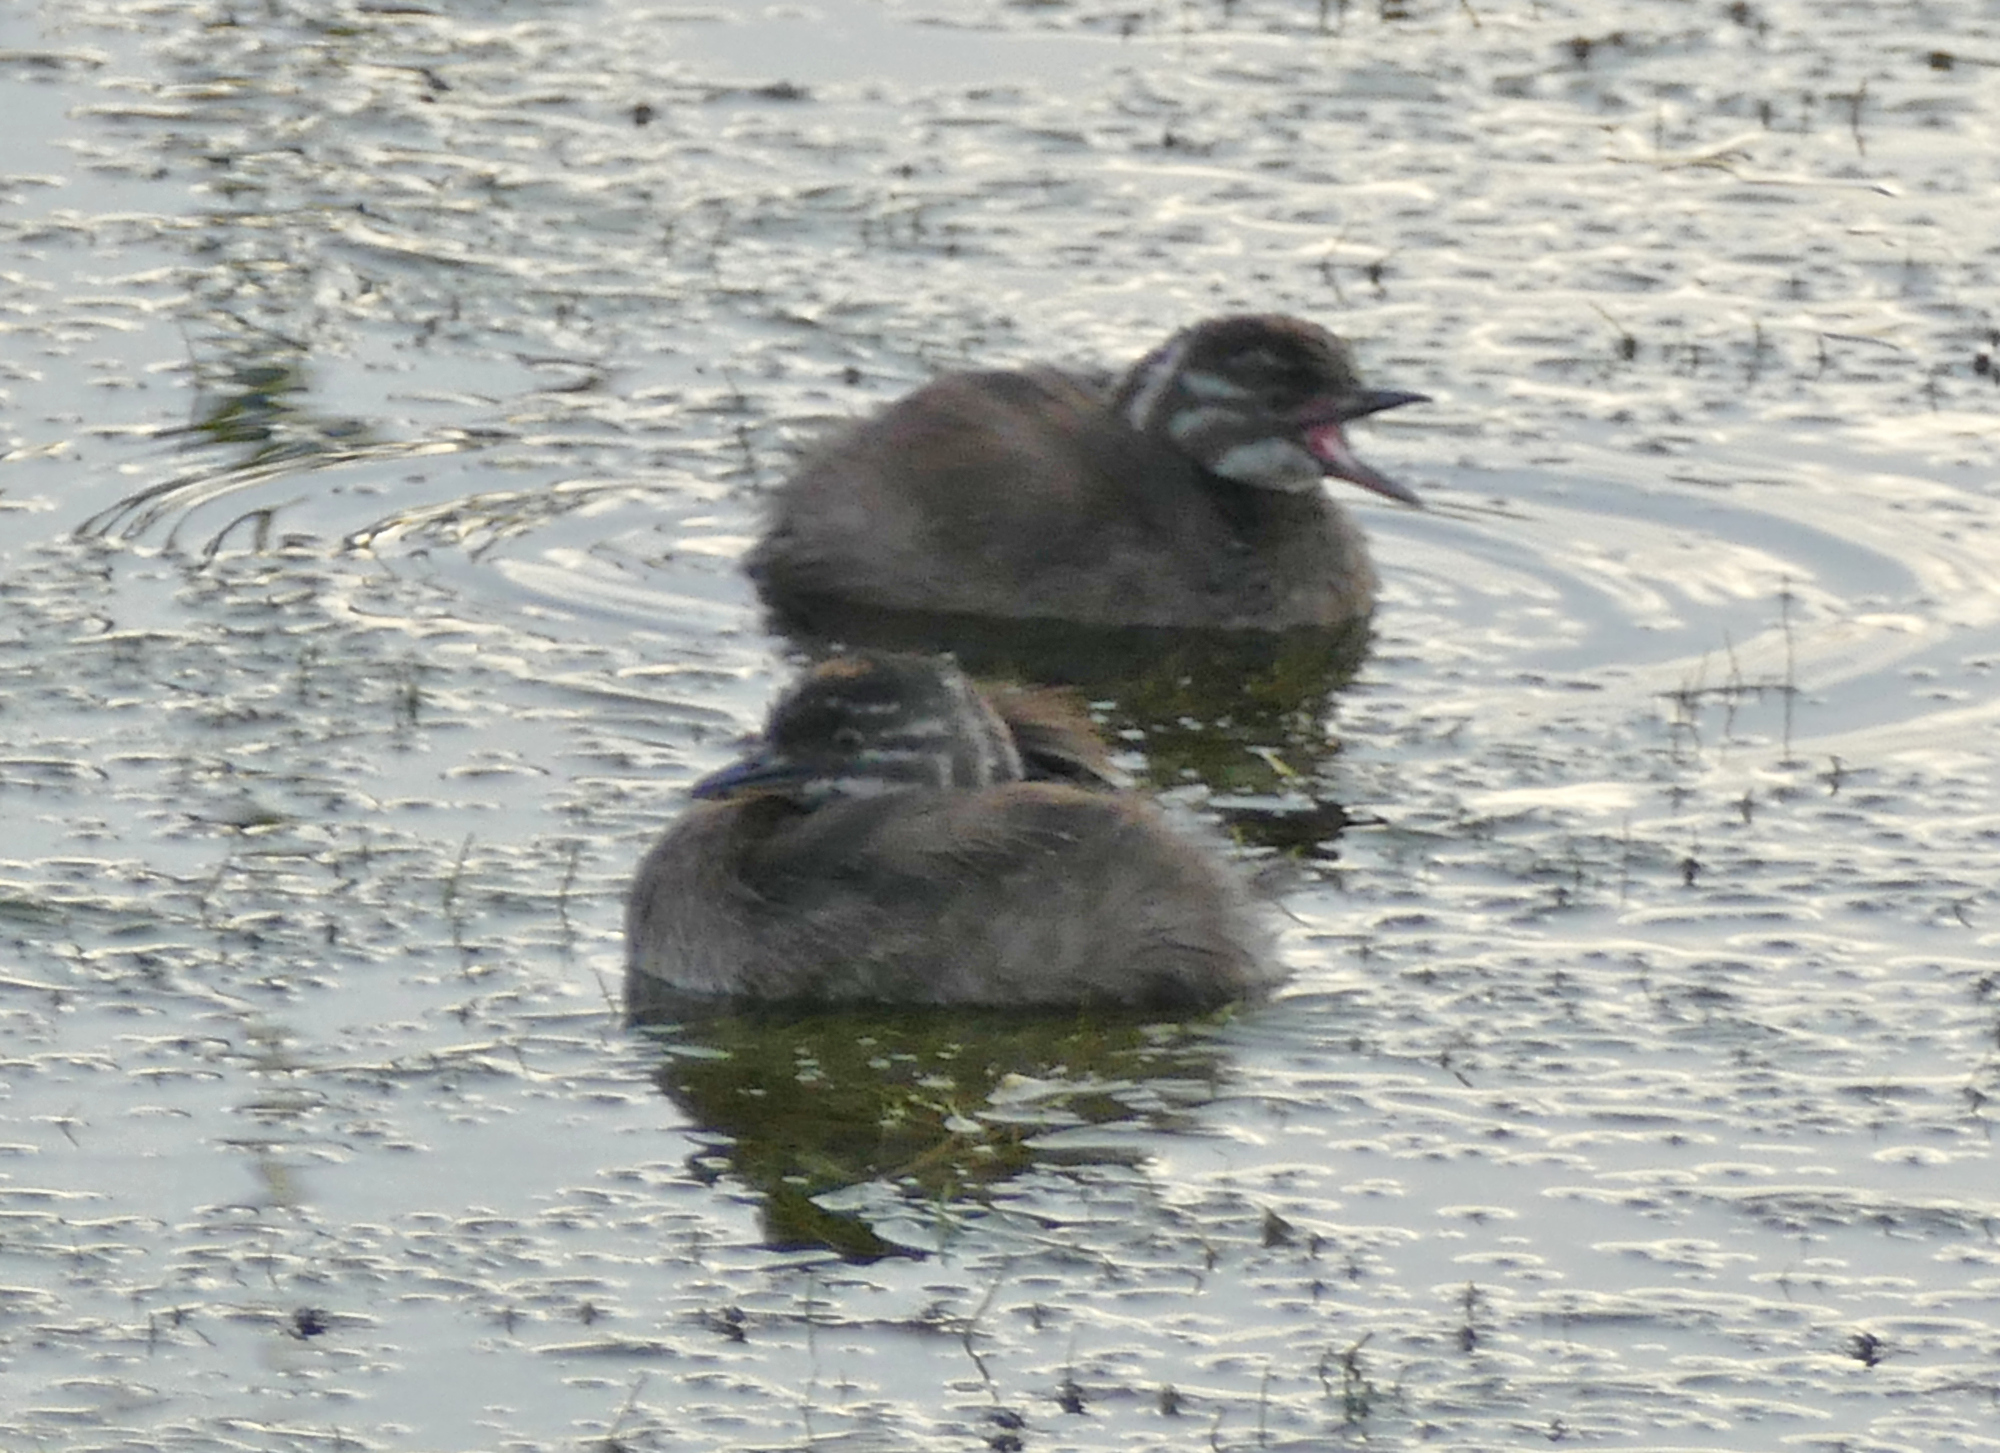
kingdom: Animalia
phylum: Chordata
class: Aves
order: Podicipediformes
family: Podicipedidae
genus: Tachybaptus
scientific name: Tachybaptus dominicus
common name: Least grebe
